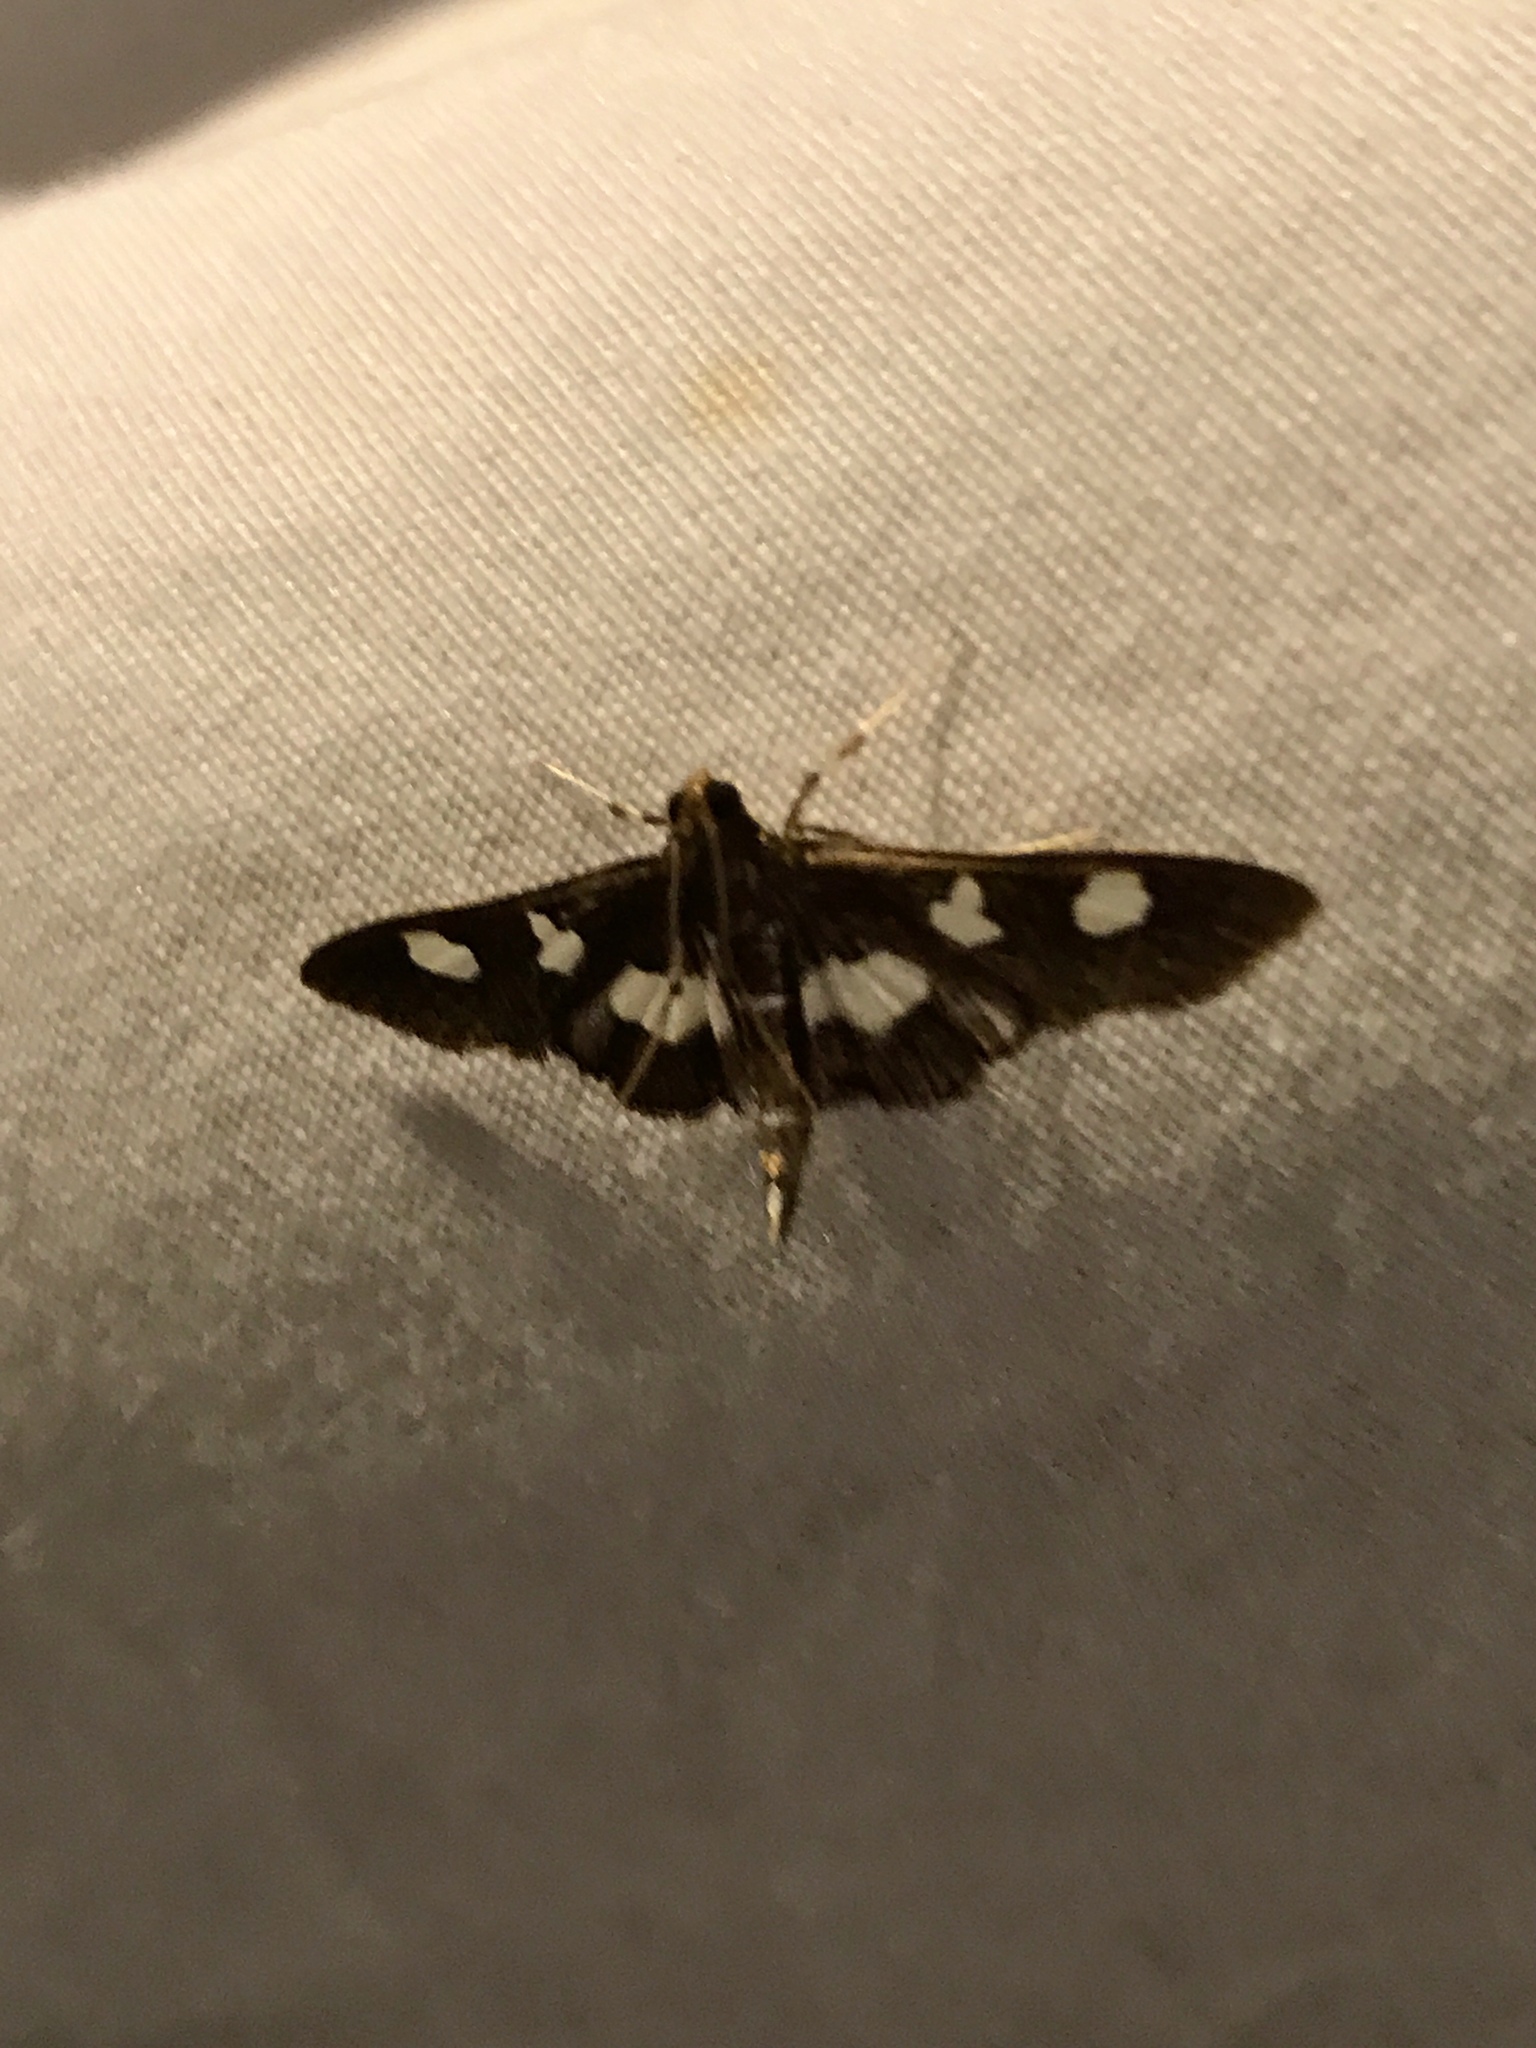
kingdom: Animalia
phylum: Arthropoda
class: Insecta
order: Lepidoptera
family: Crambidae
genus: Desmia
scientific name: Desmia
